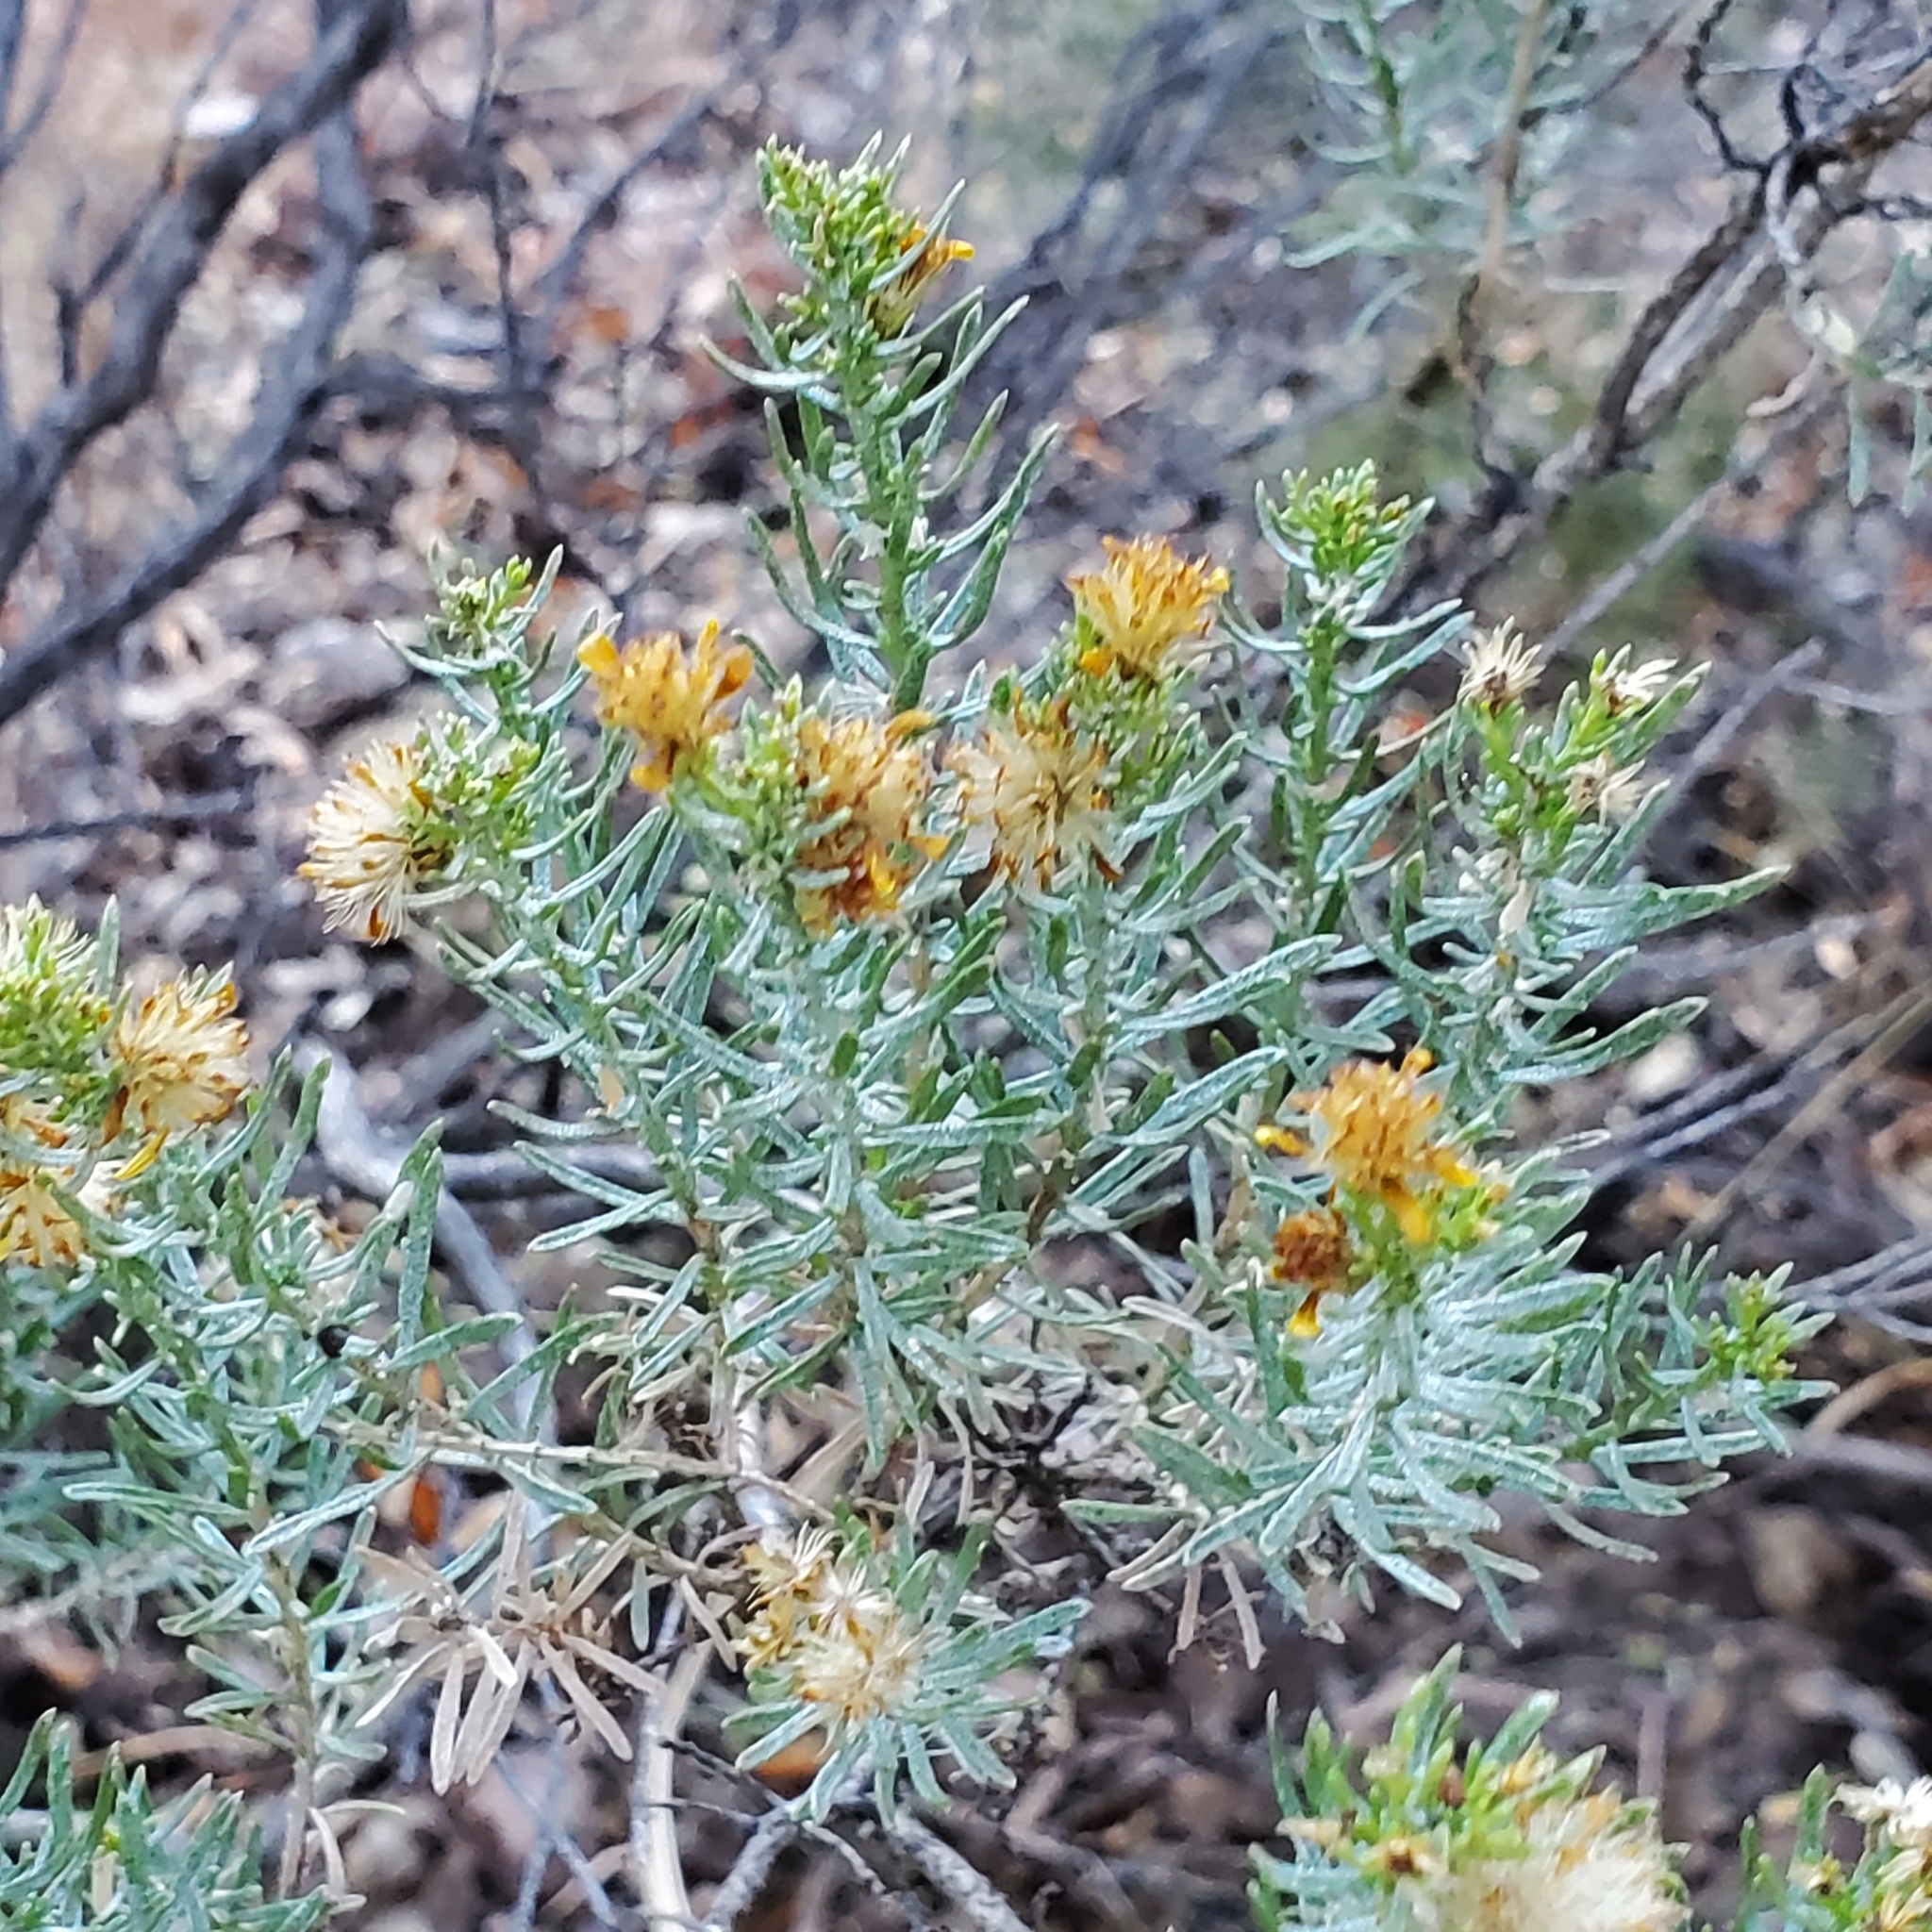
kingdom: Plantae
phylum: Tracheophyta
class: Magnoliopsida
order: Asterales
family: Asteraceae
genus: Ericameria
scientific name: Ericameria laricifolia
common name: Turpentine-bush
